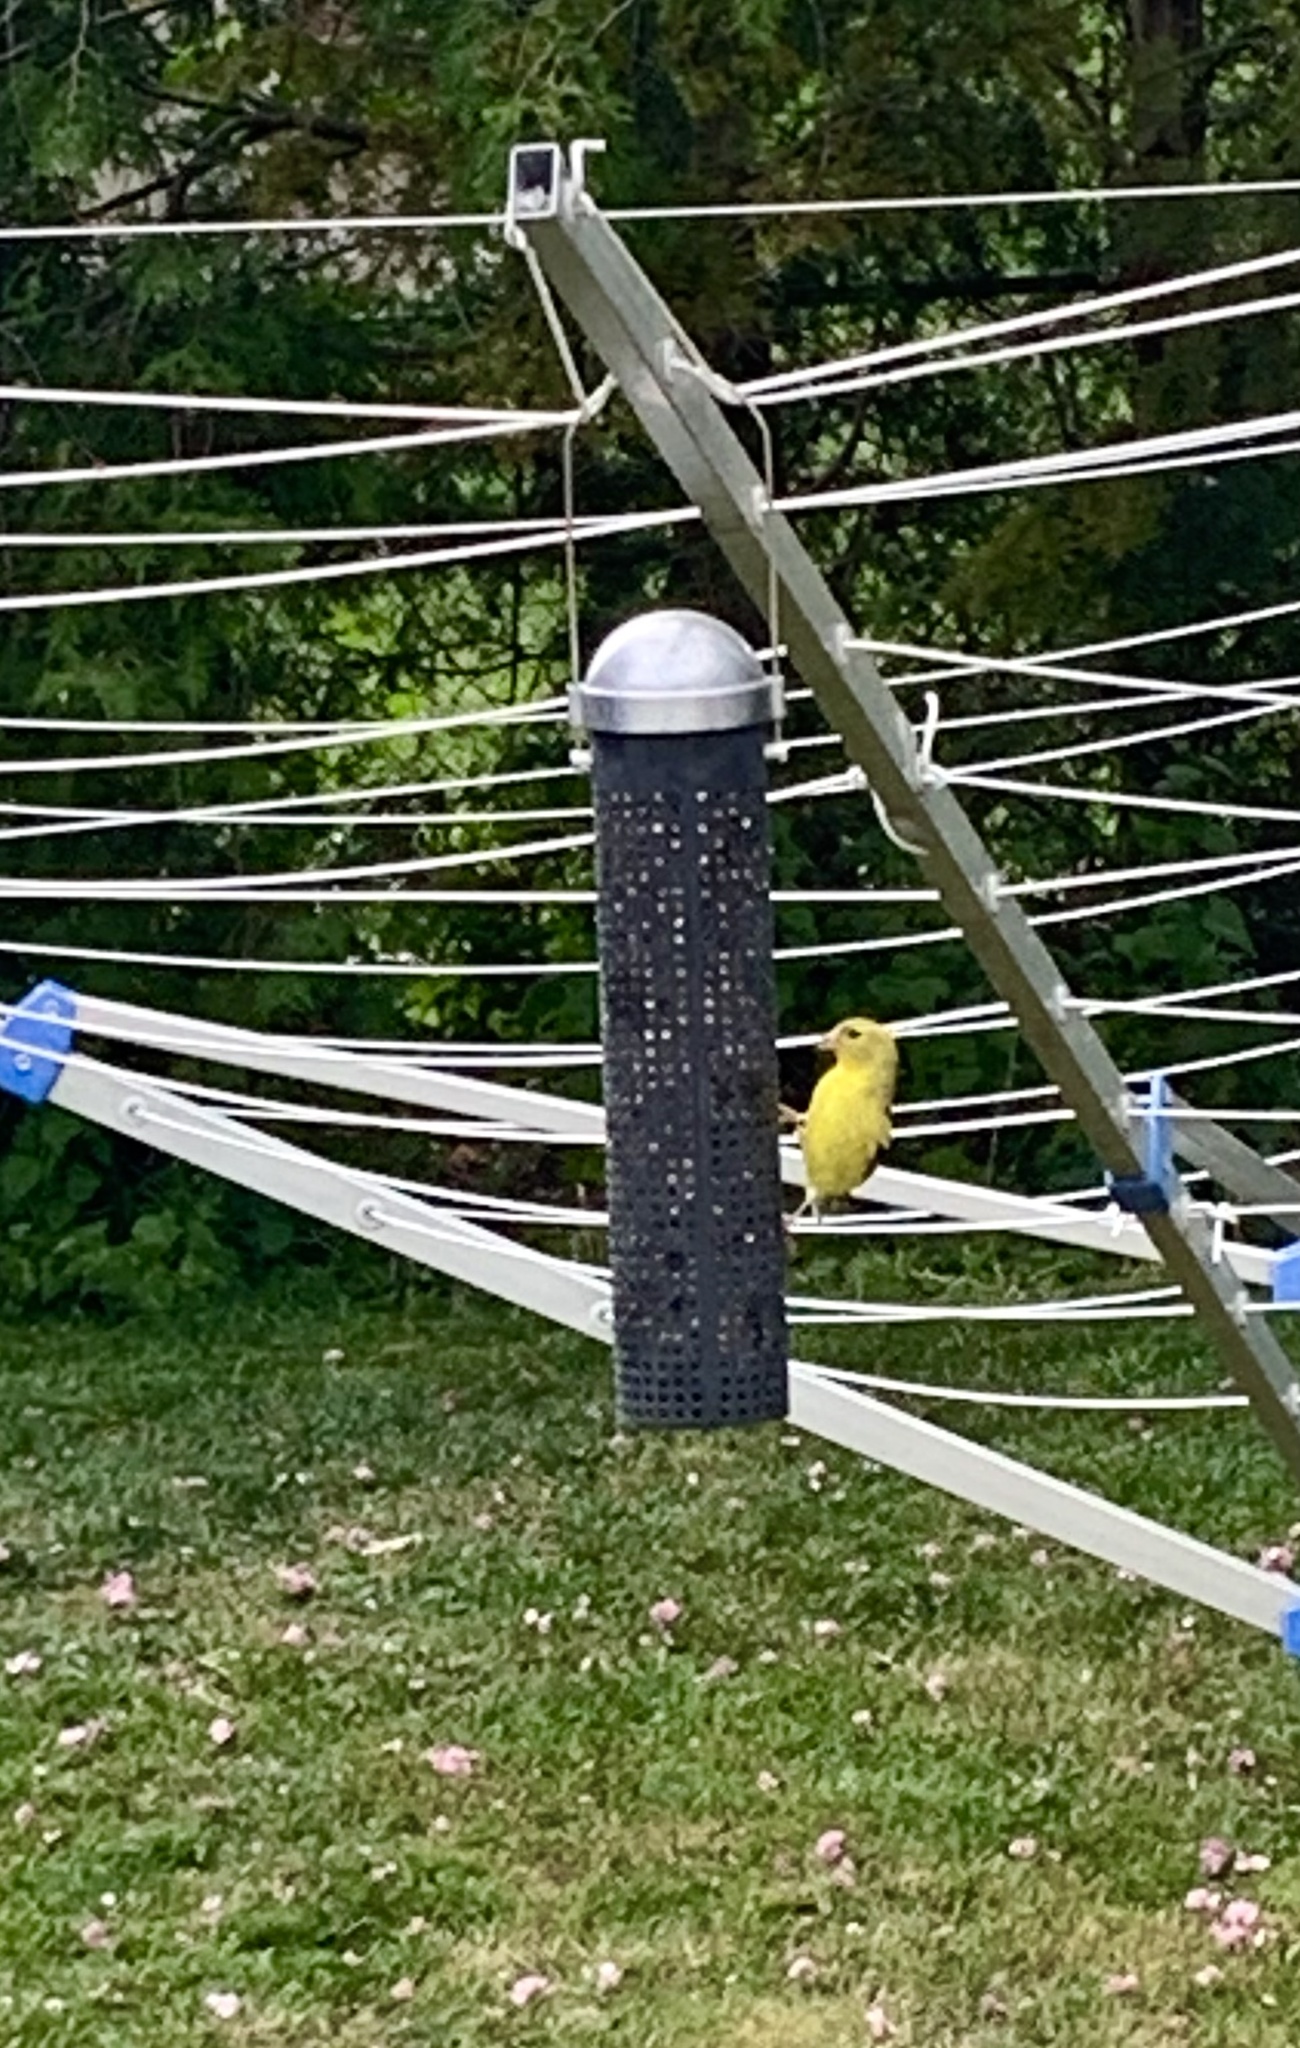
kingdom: Animalia
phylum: Chordata
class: Aves
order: Passeriformes
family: Fringillidae
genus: Spinus
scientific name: Spinus tristis
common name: American goldfinch
